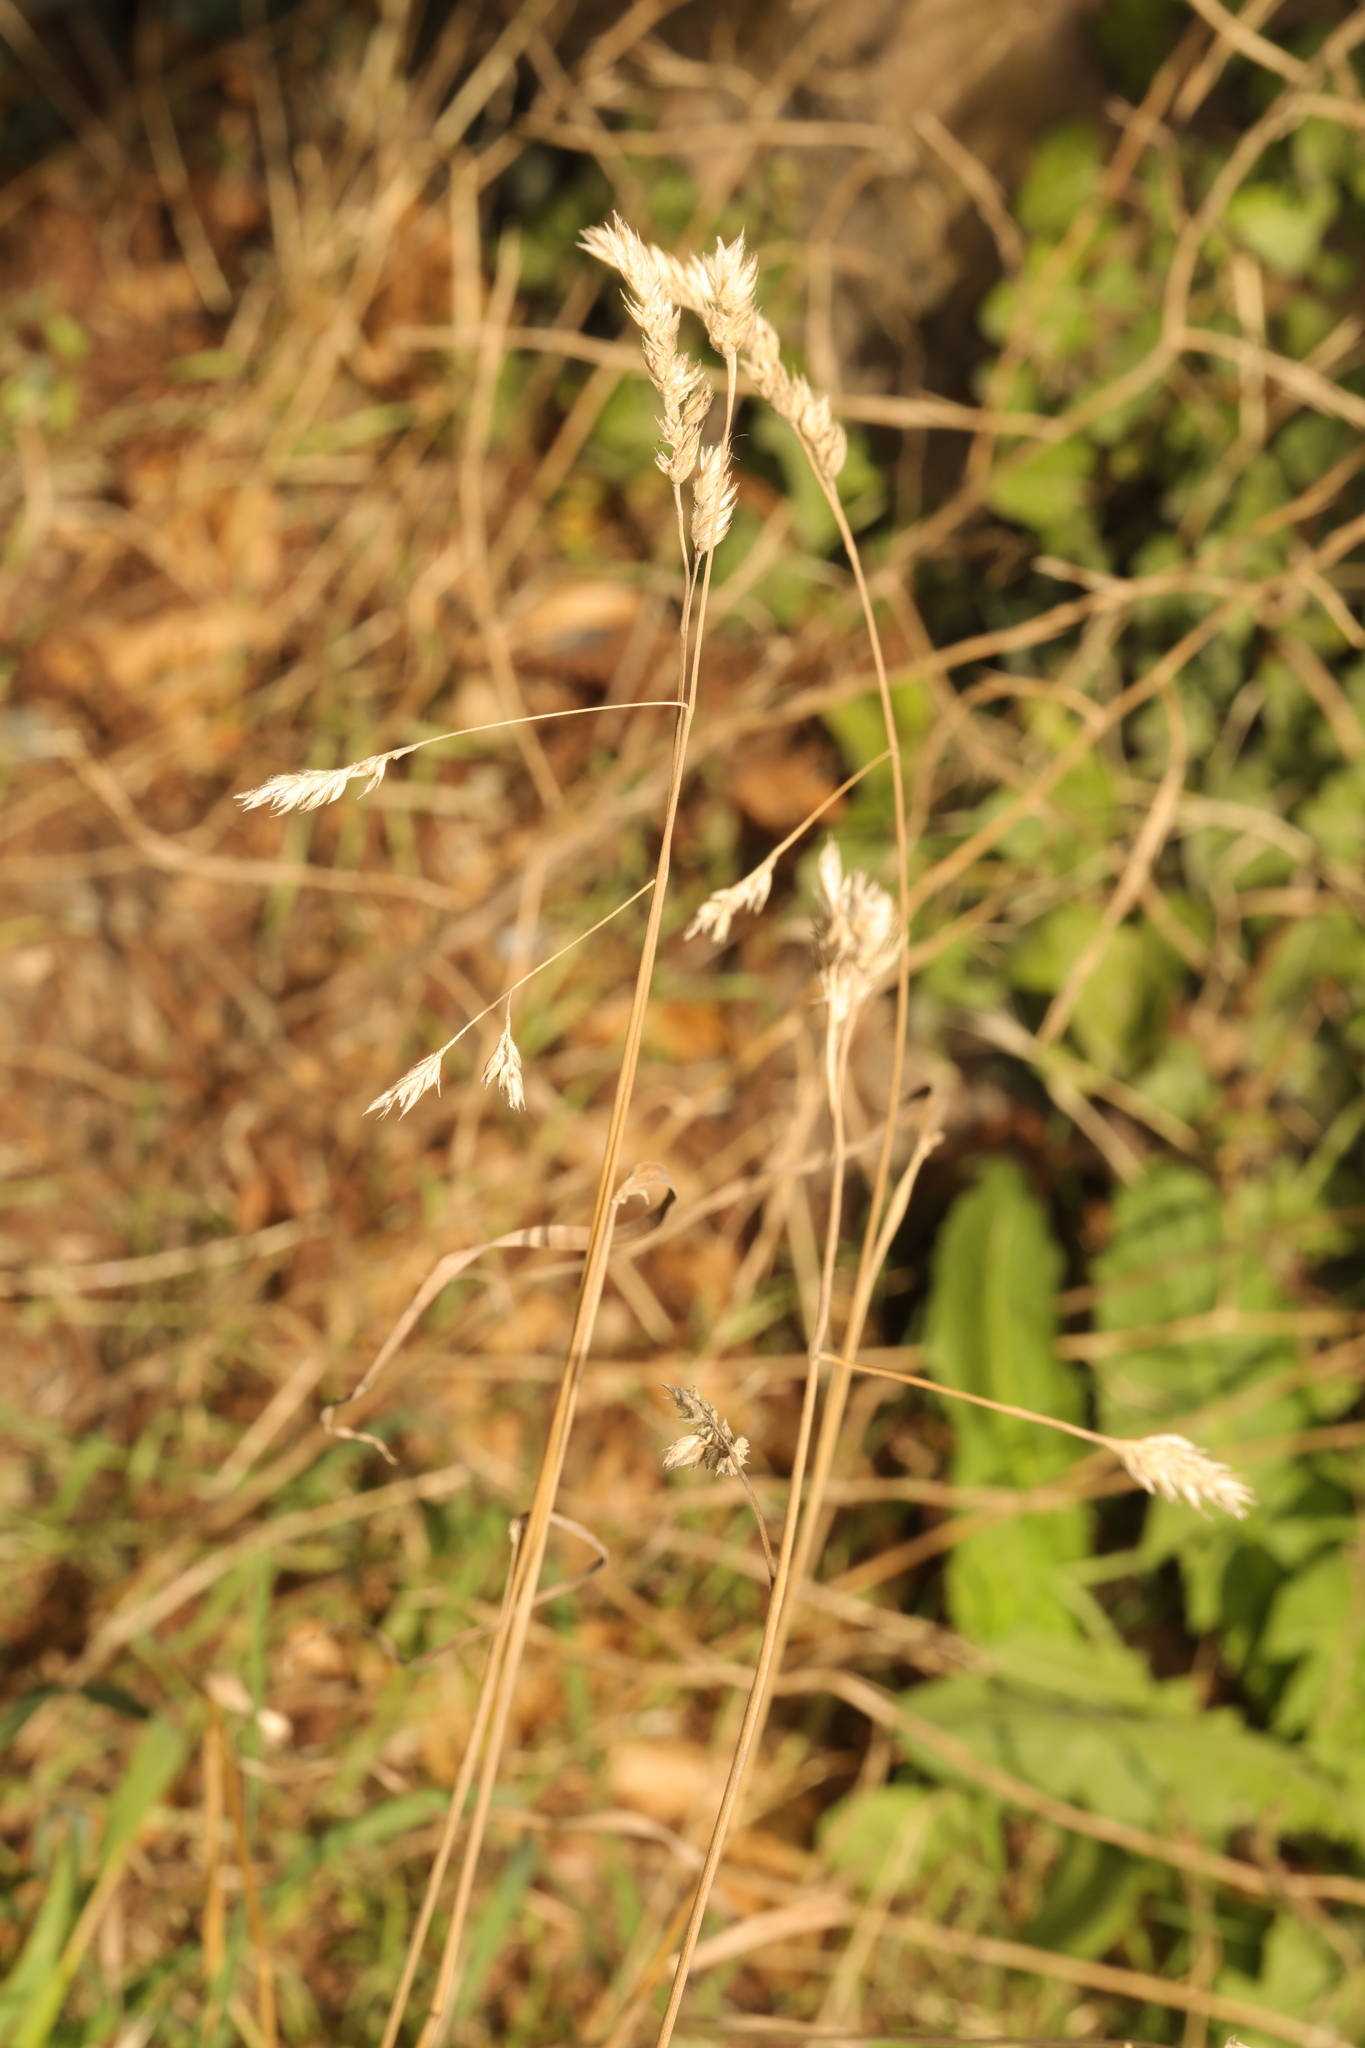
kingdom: Plantae
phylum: Tracheophyta
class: Liliopsida
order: Poales
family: Poaceae
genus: Dactylis
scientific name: Dactylis glomerata
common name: Orchardgrass
